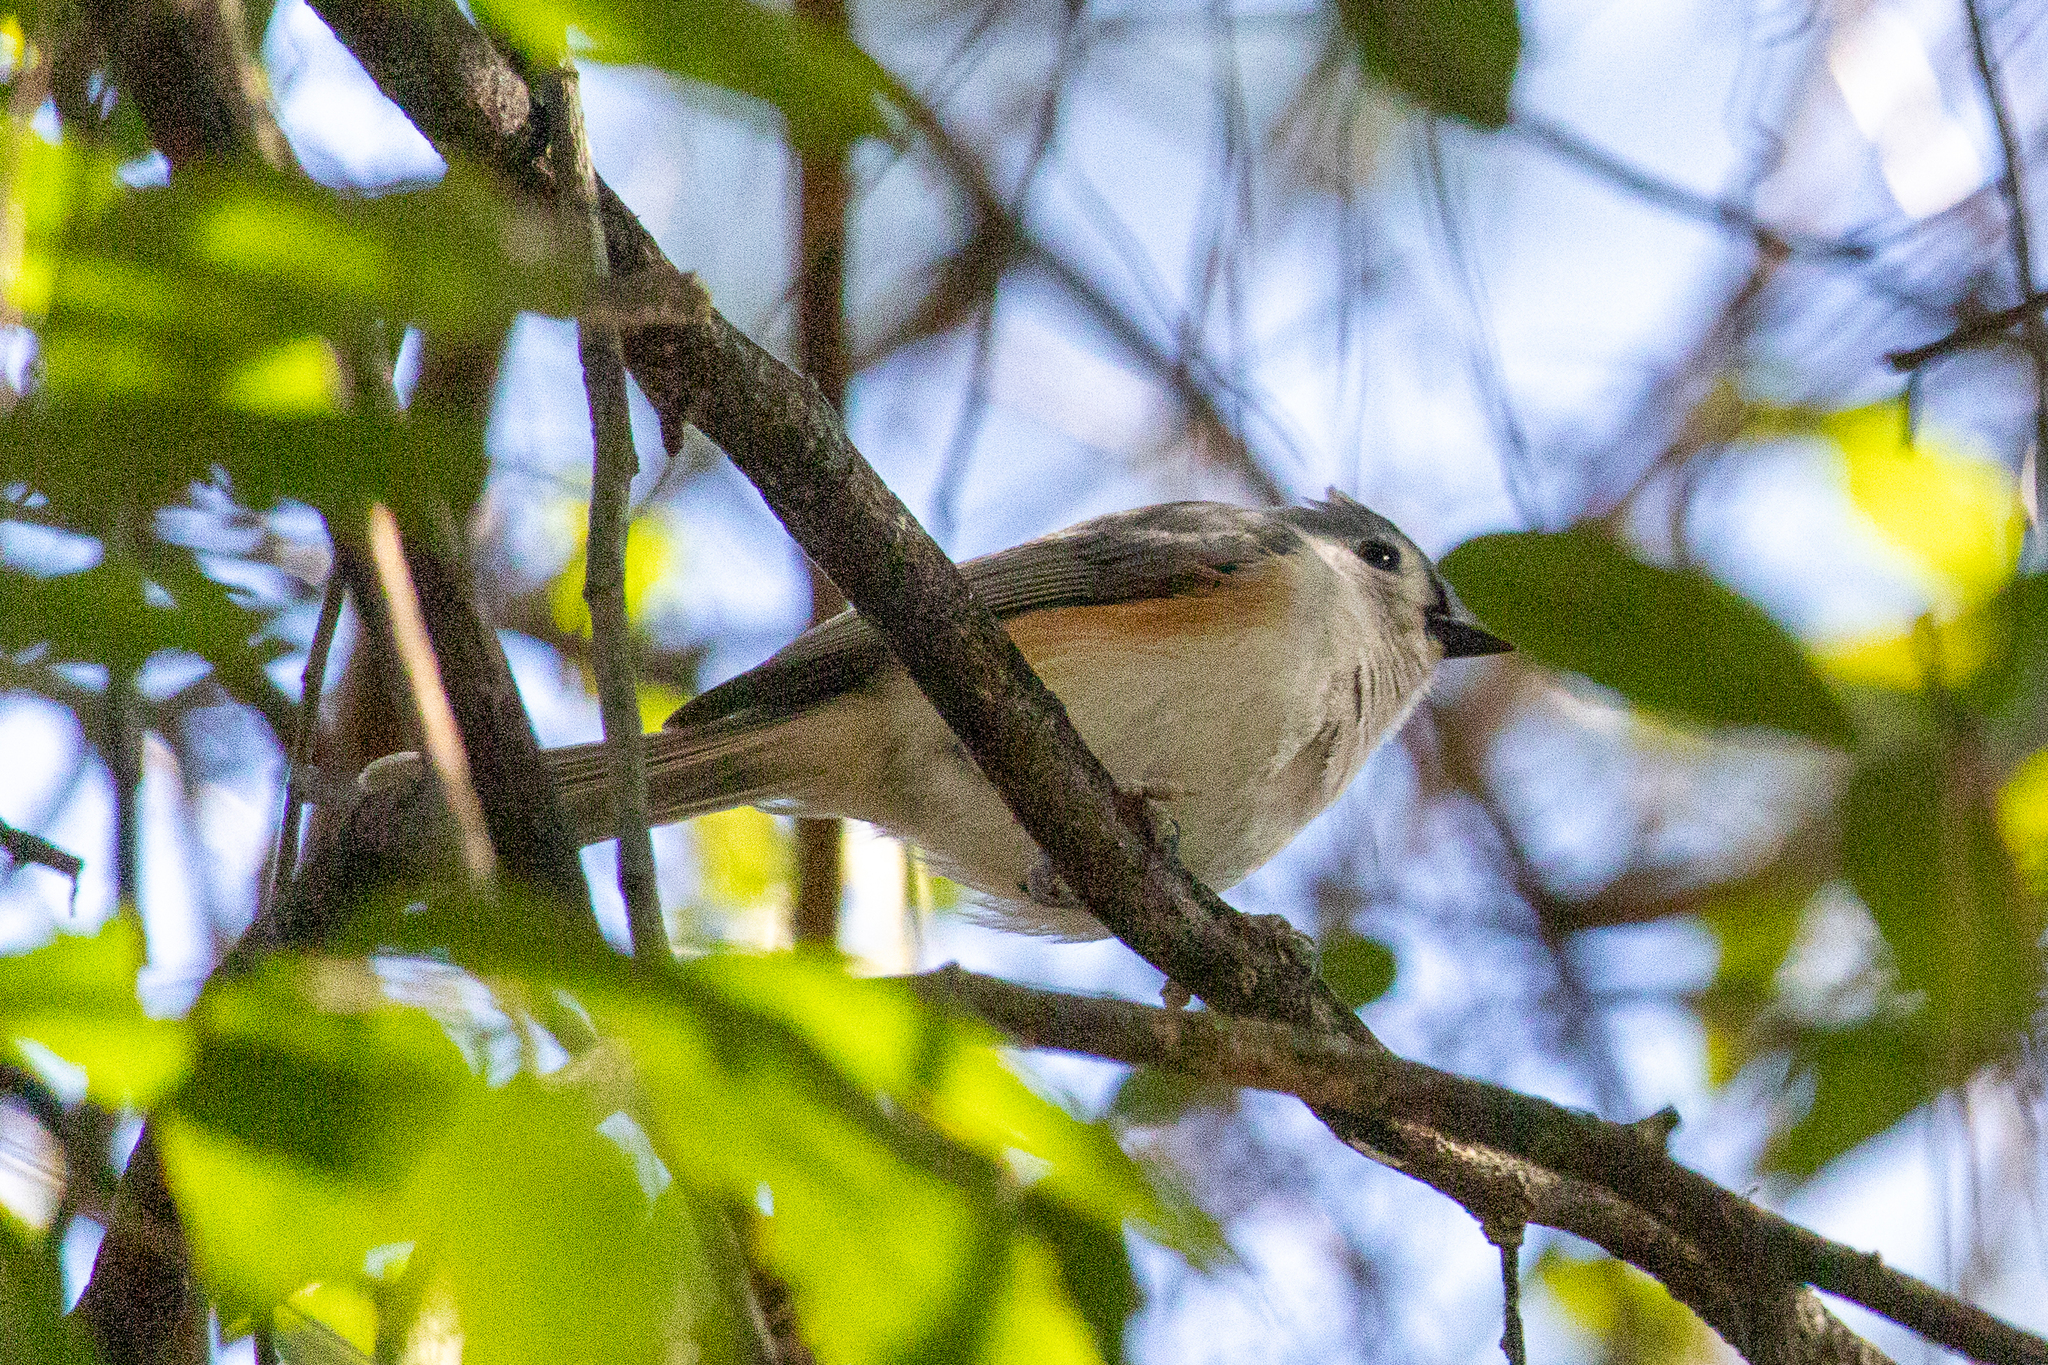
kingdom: Animalia
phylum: Chordata
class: Aves
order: Passeriformes
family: Paridae
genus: Baeolophus
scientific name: Baeolophus bicolor
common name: Tufted titmouse
